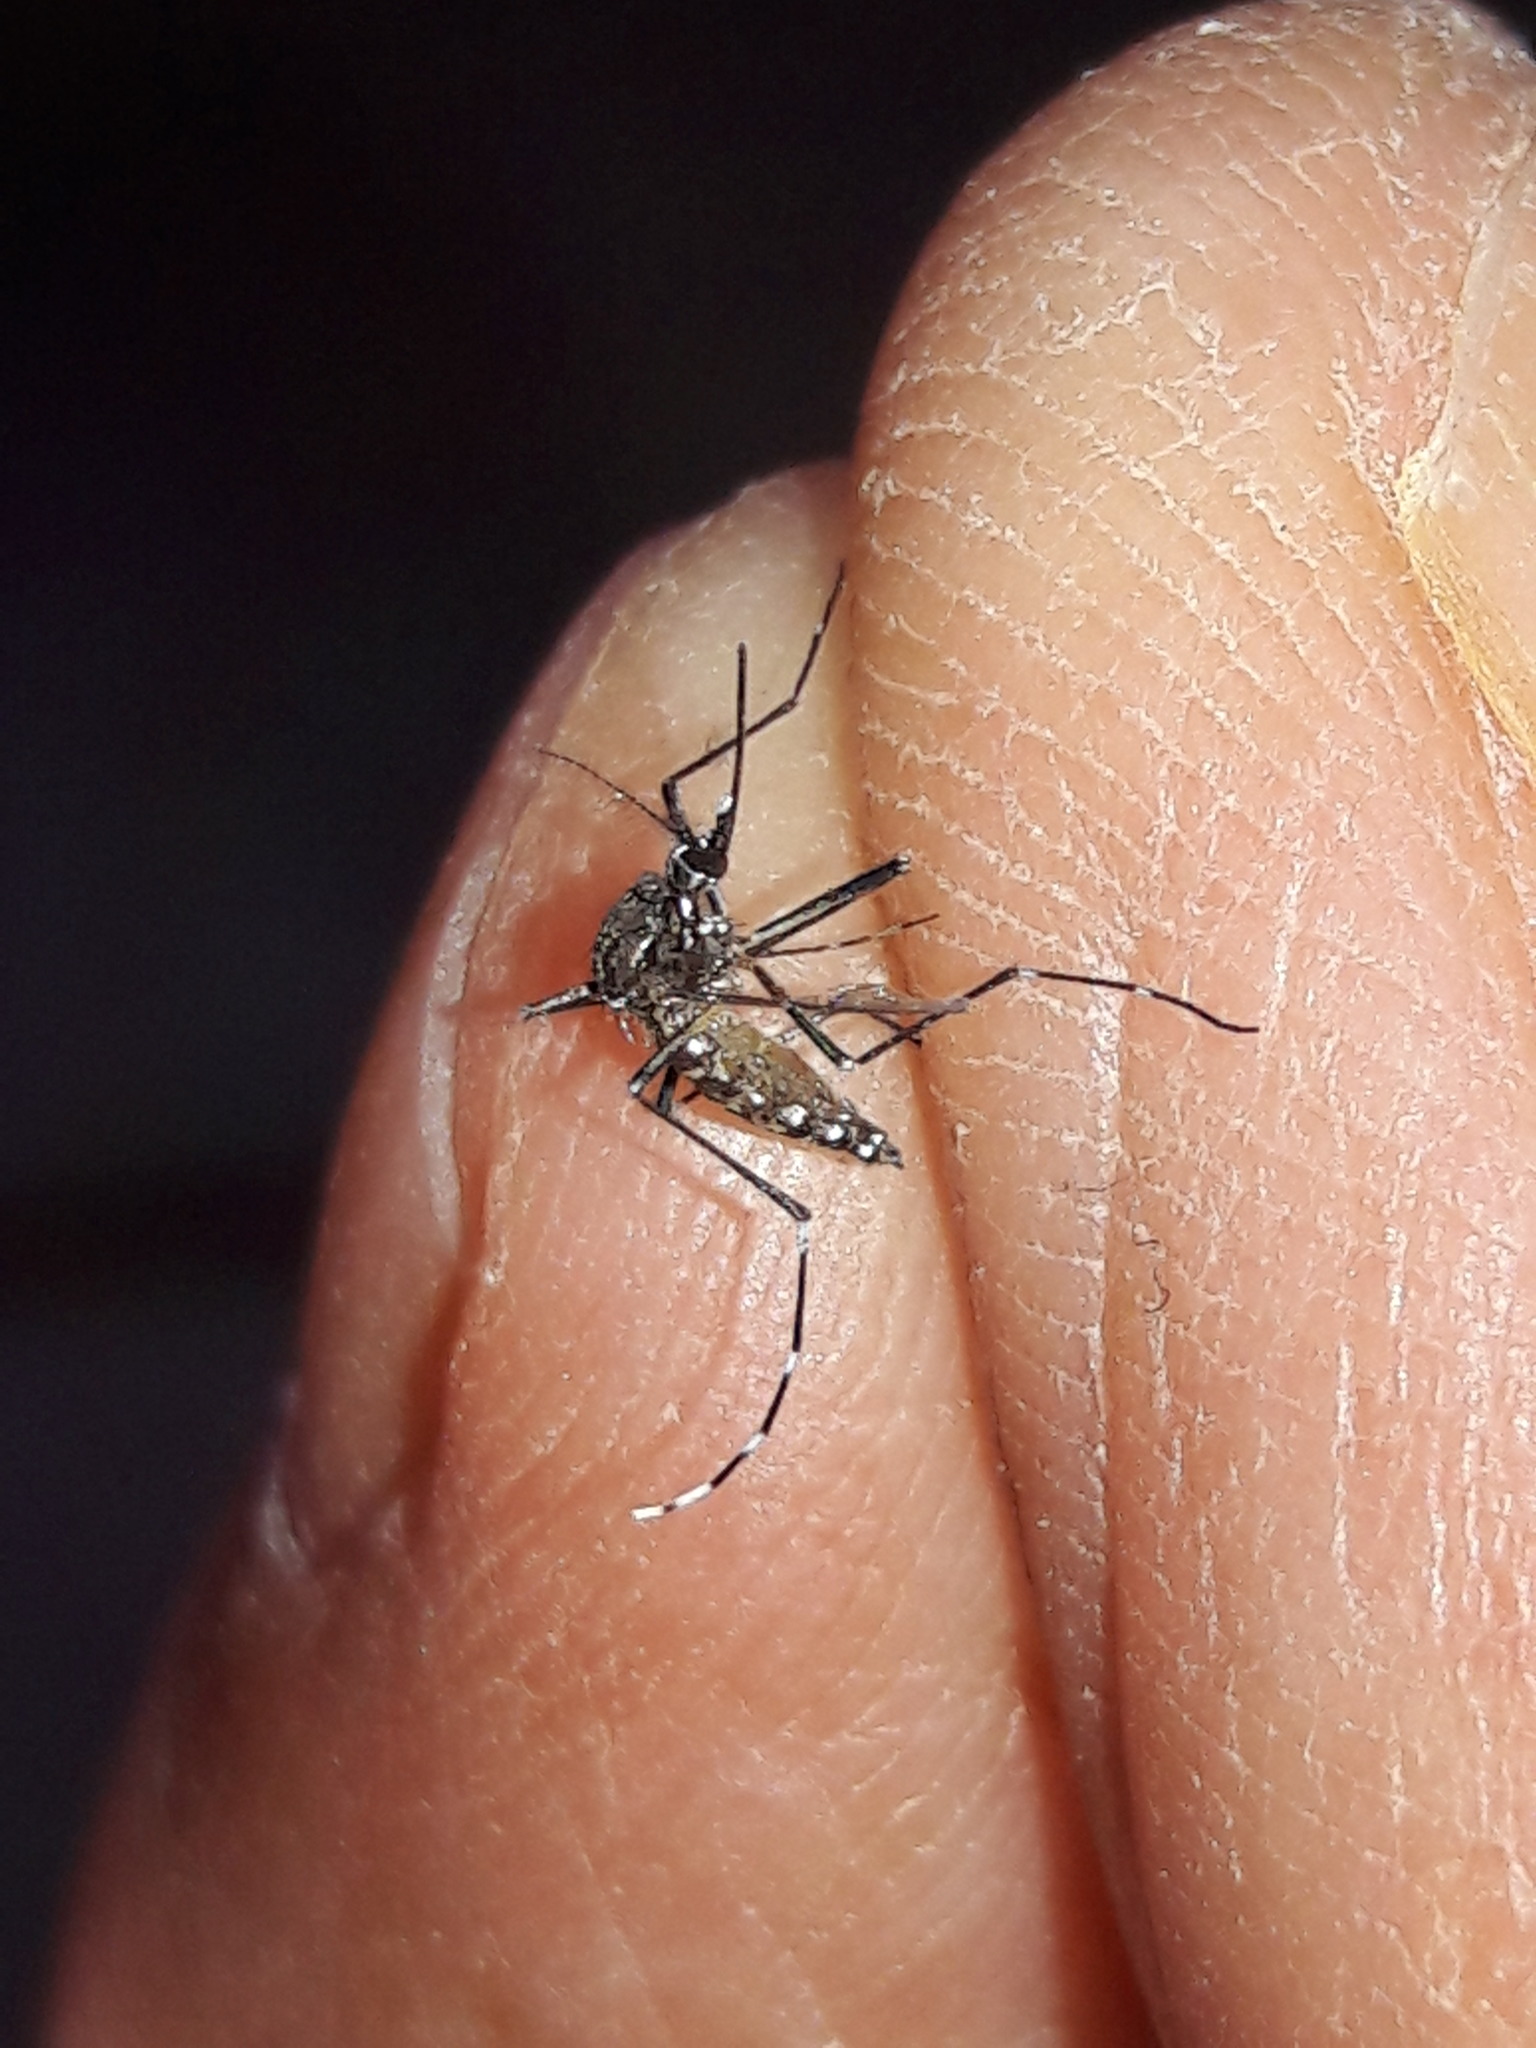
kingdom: Animalia
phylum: Arthropoda
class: Insecta
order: Diptera
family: Culicidae
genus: Aedes
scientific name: Aedes aegypti
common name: Yellow fever mosquito
